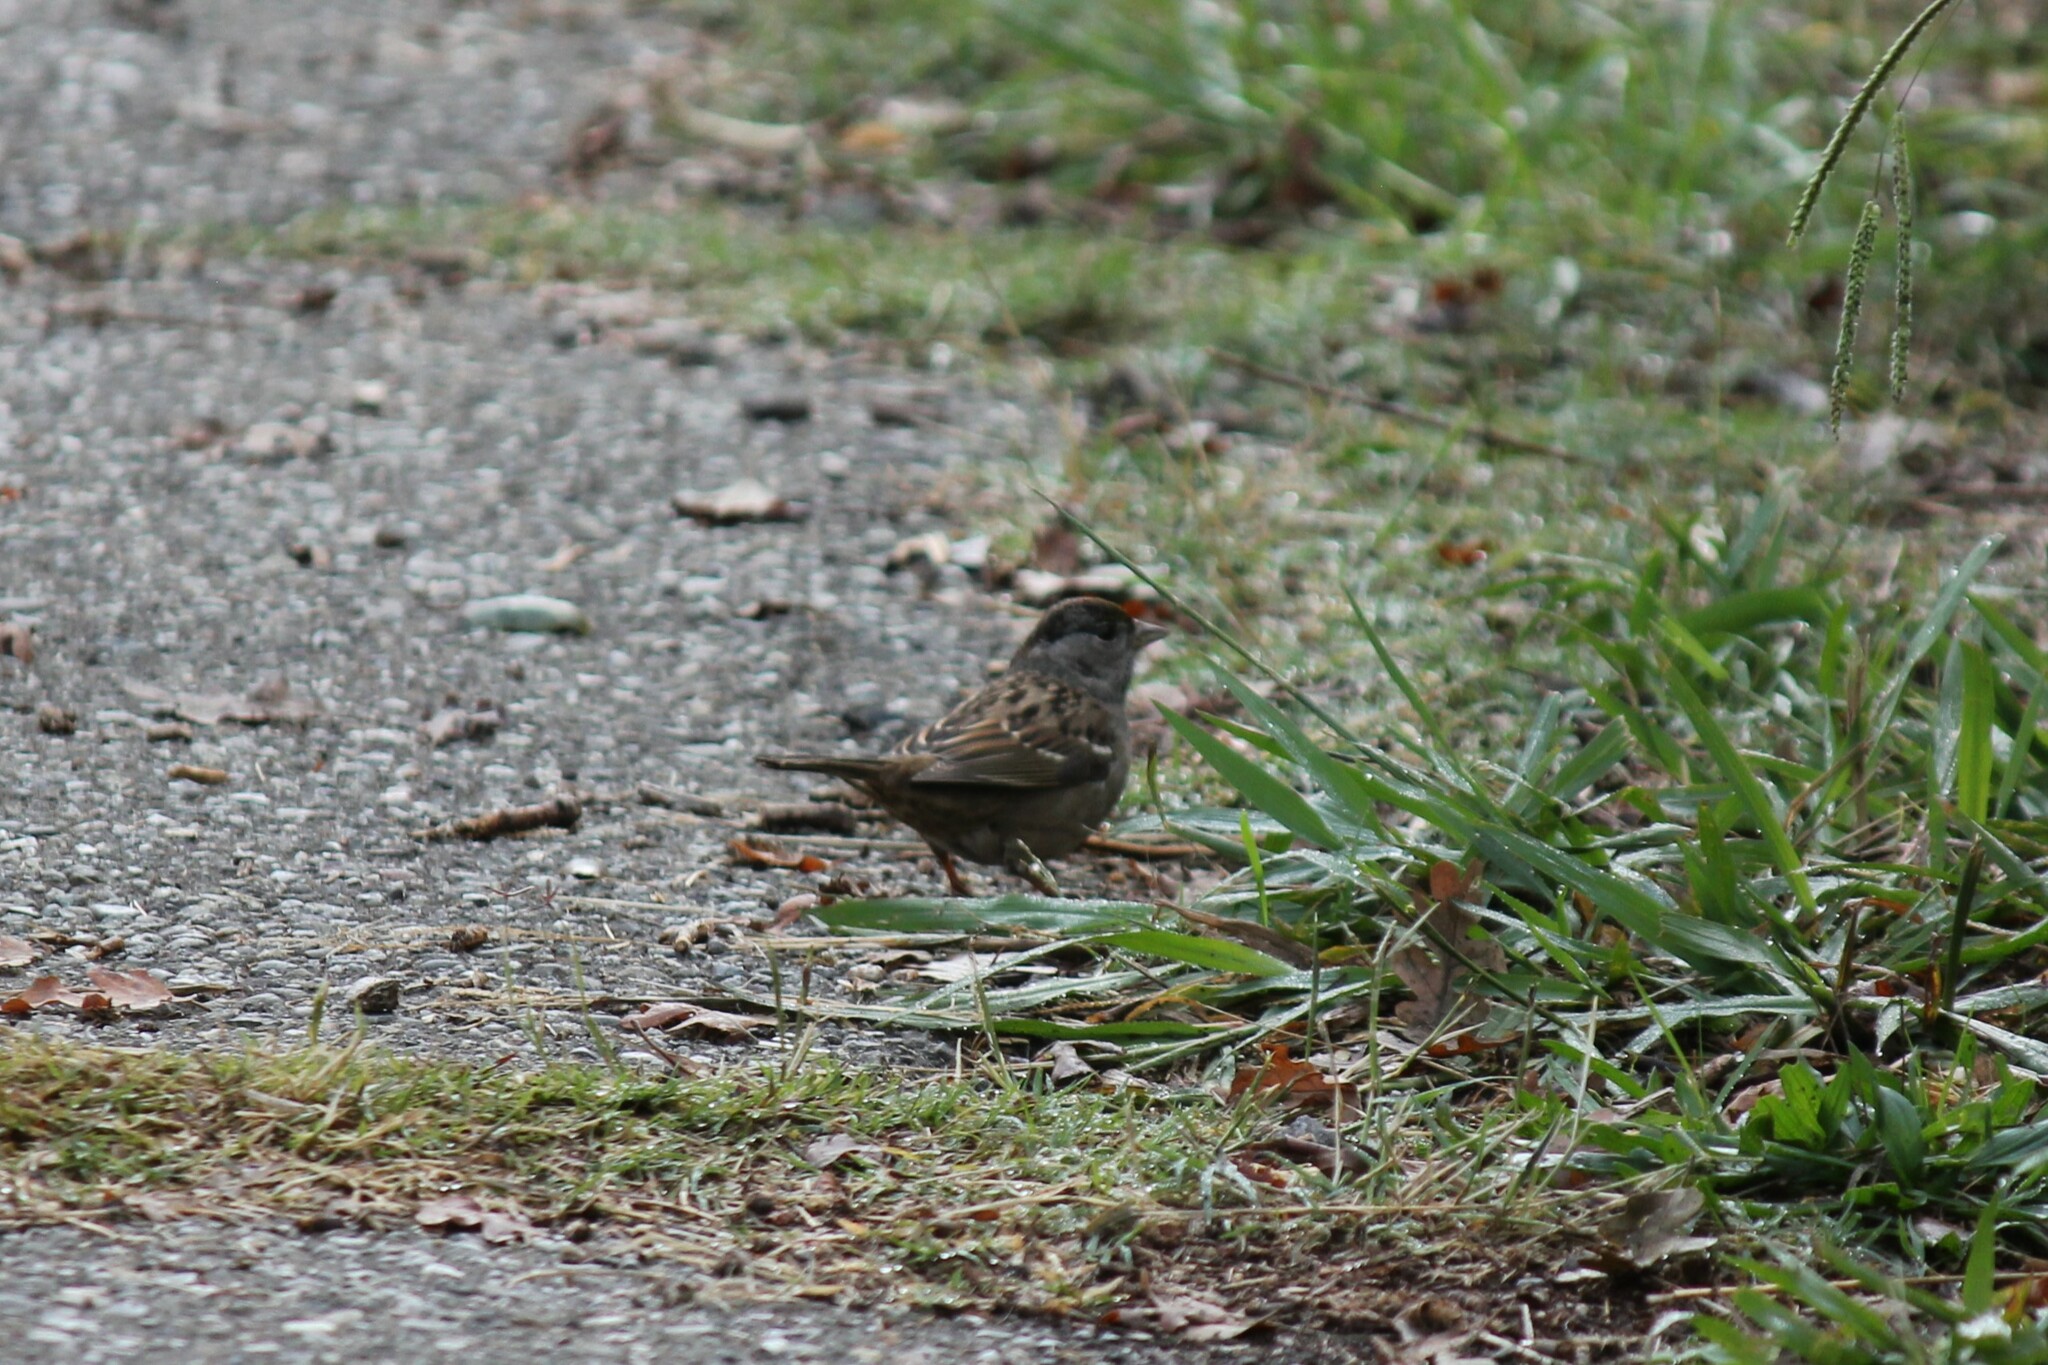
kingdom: Animalia
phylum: Chordata
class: Aves
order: Passeriformes
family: Passerellidae
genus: Zonotrichia
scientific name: Zonotrichia atricapilla
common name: Golden-crowned sparrow
